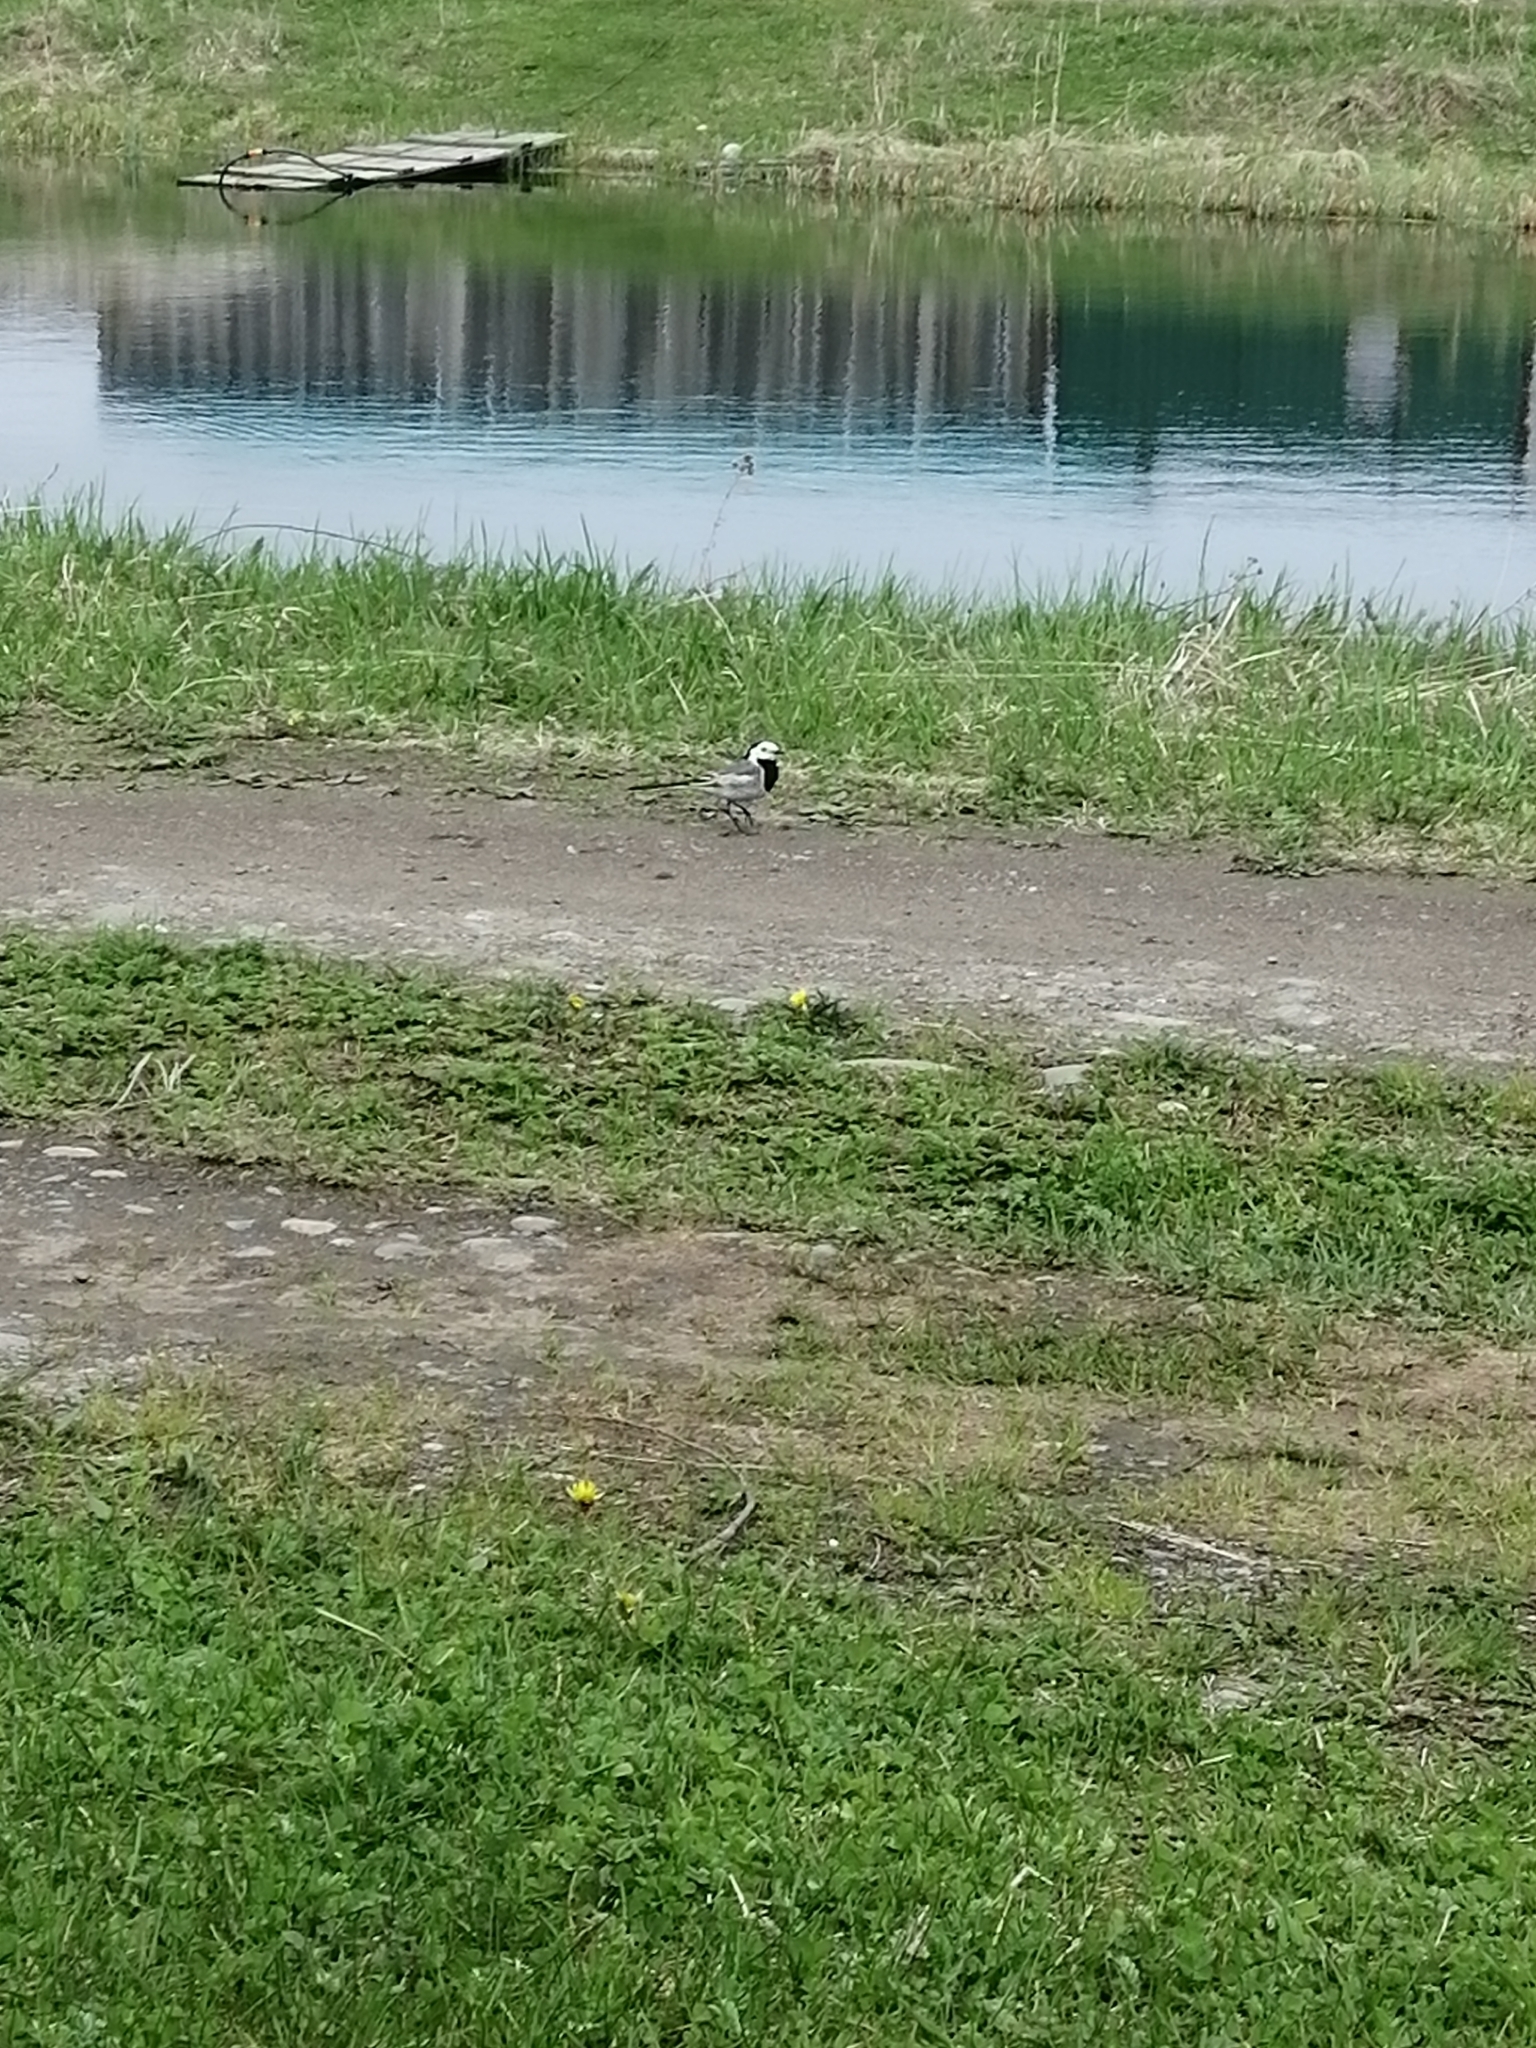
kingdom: Animalia
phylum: Chordata
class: Aves
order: Passeriformes
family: Motacillidae
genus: Motacilla
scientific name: Motacilla alba
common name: White wagtail
